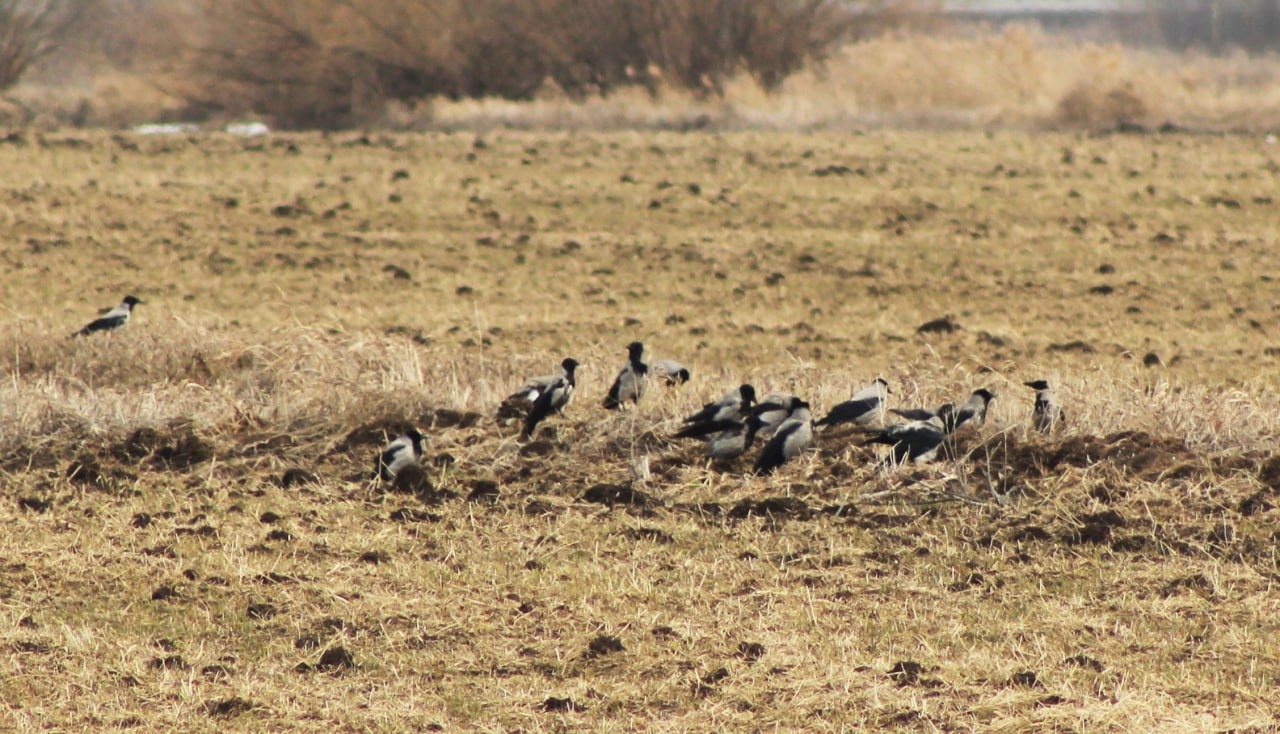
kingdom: Animalia
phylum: Chordata
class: Aves
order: Passeriformes
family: Corvidae
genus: Corvus
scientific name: Corvus cornix
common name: Hooded crow
